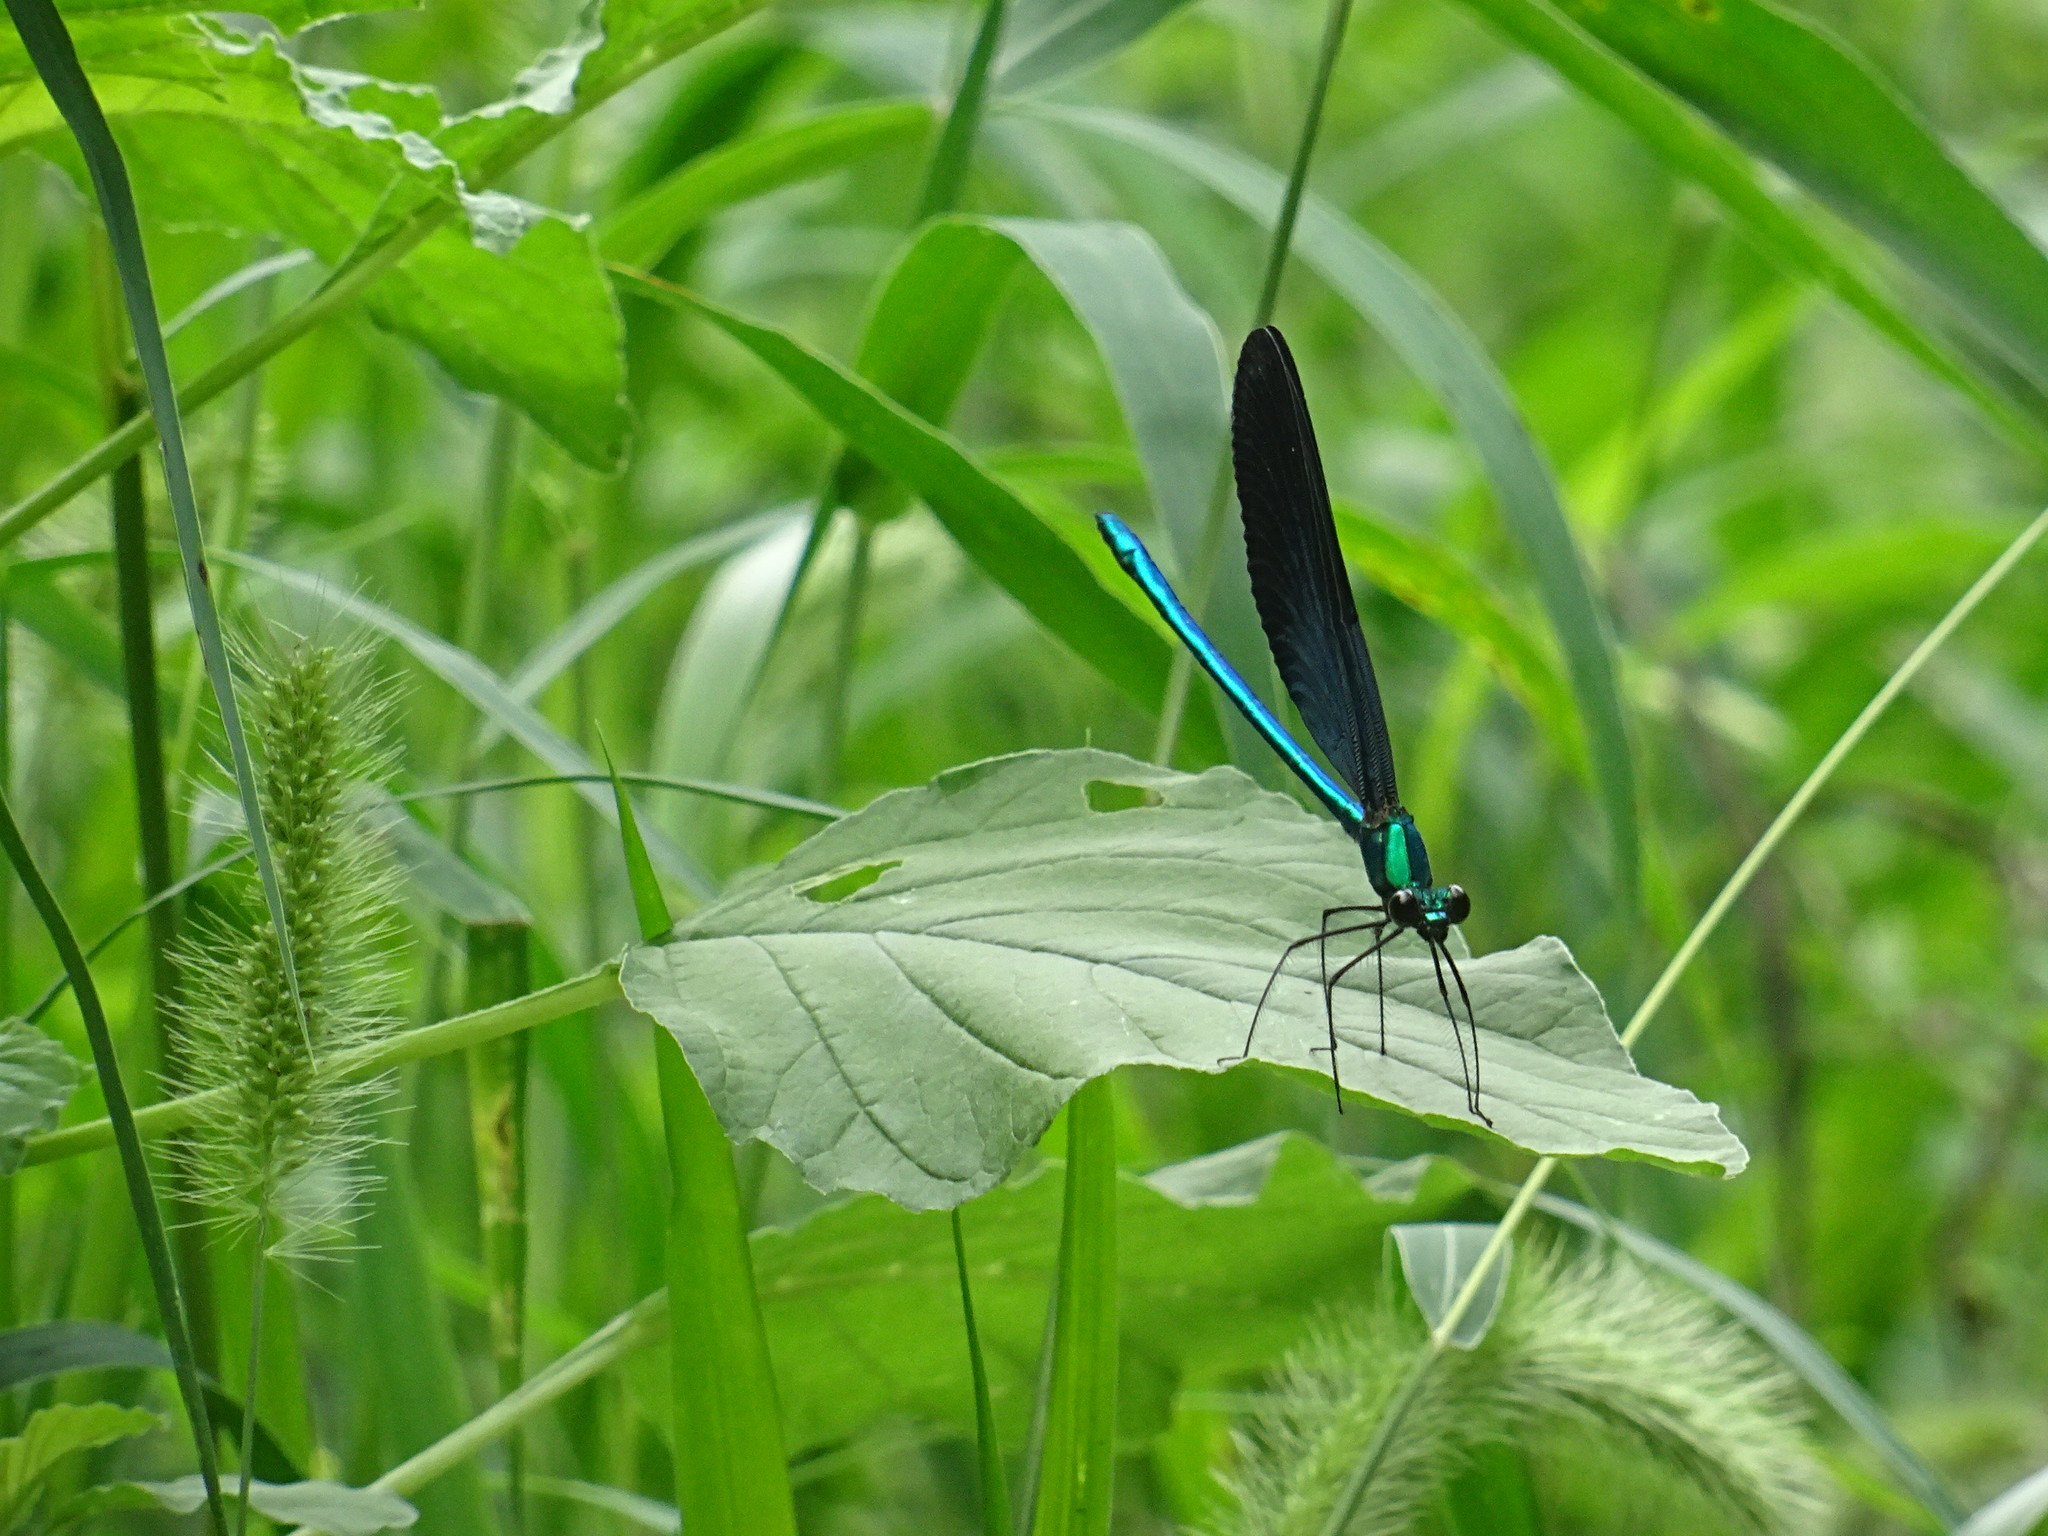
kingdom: Animalia
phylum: Arthropoda
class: Insecta
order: Odonata
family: Calopterygidae
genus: Matrona
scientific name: Matrona basilaris
